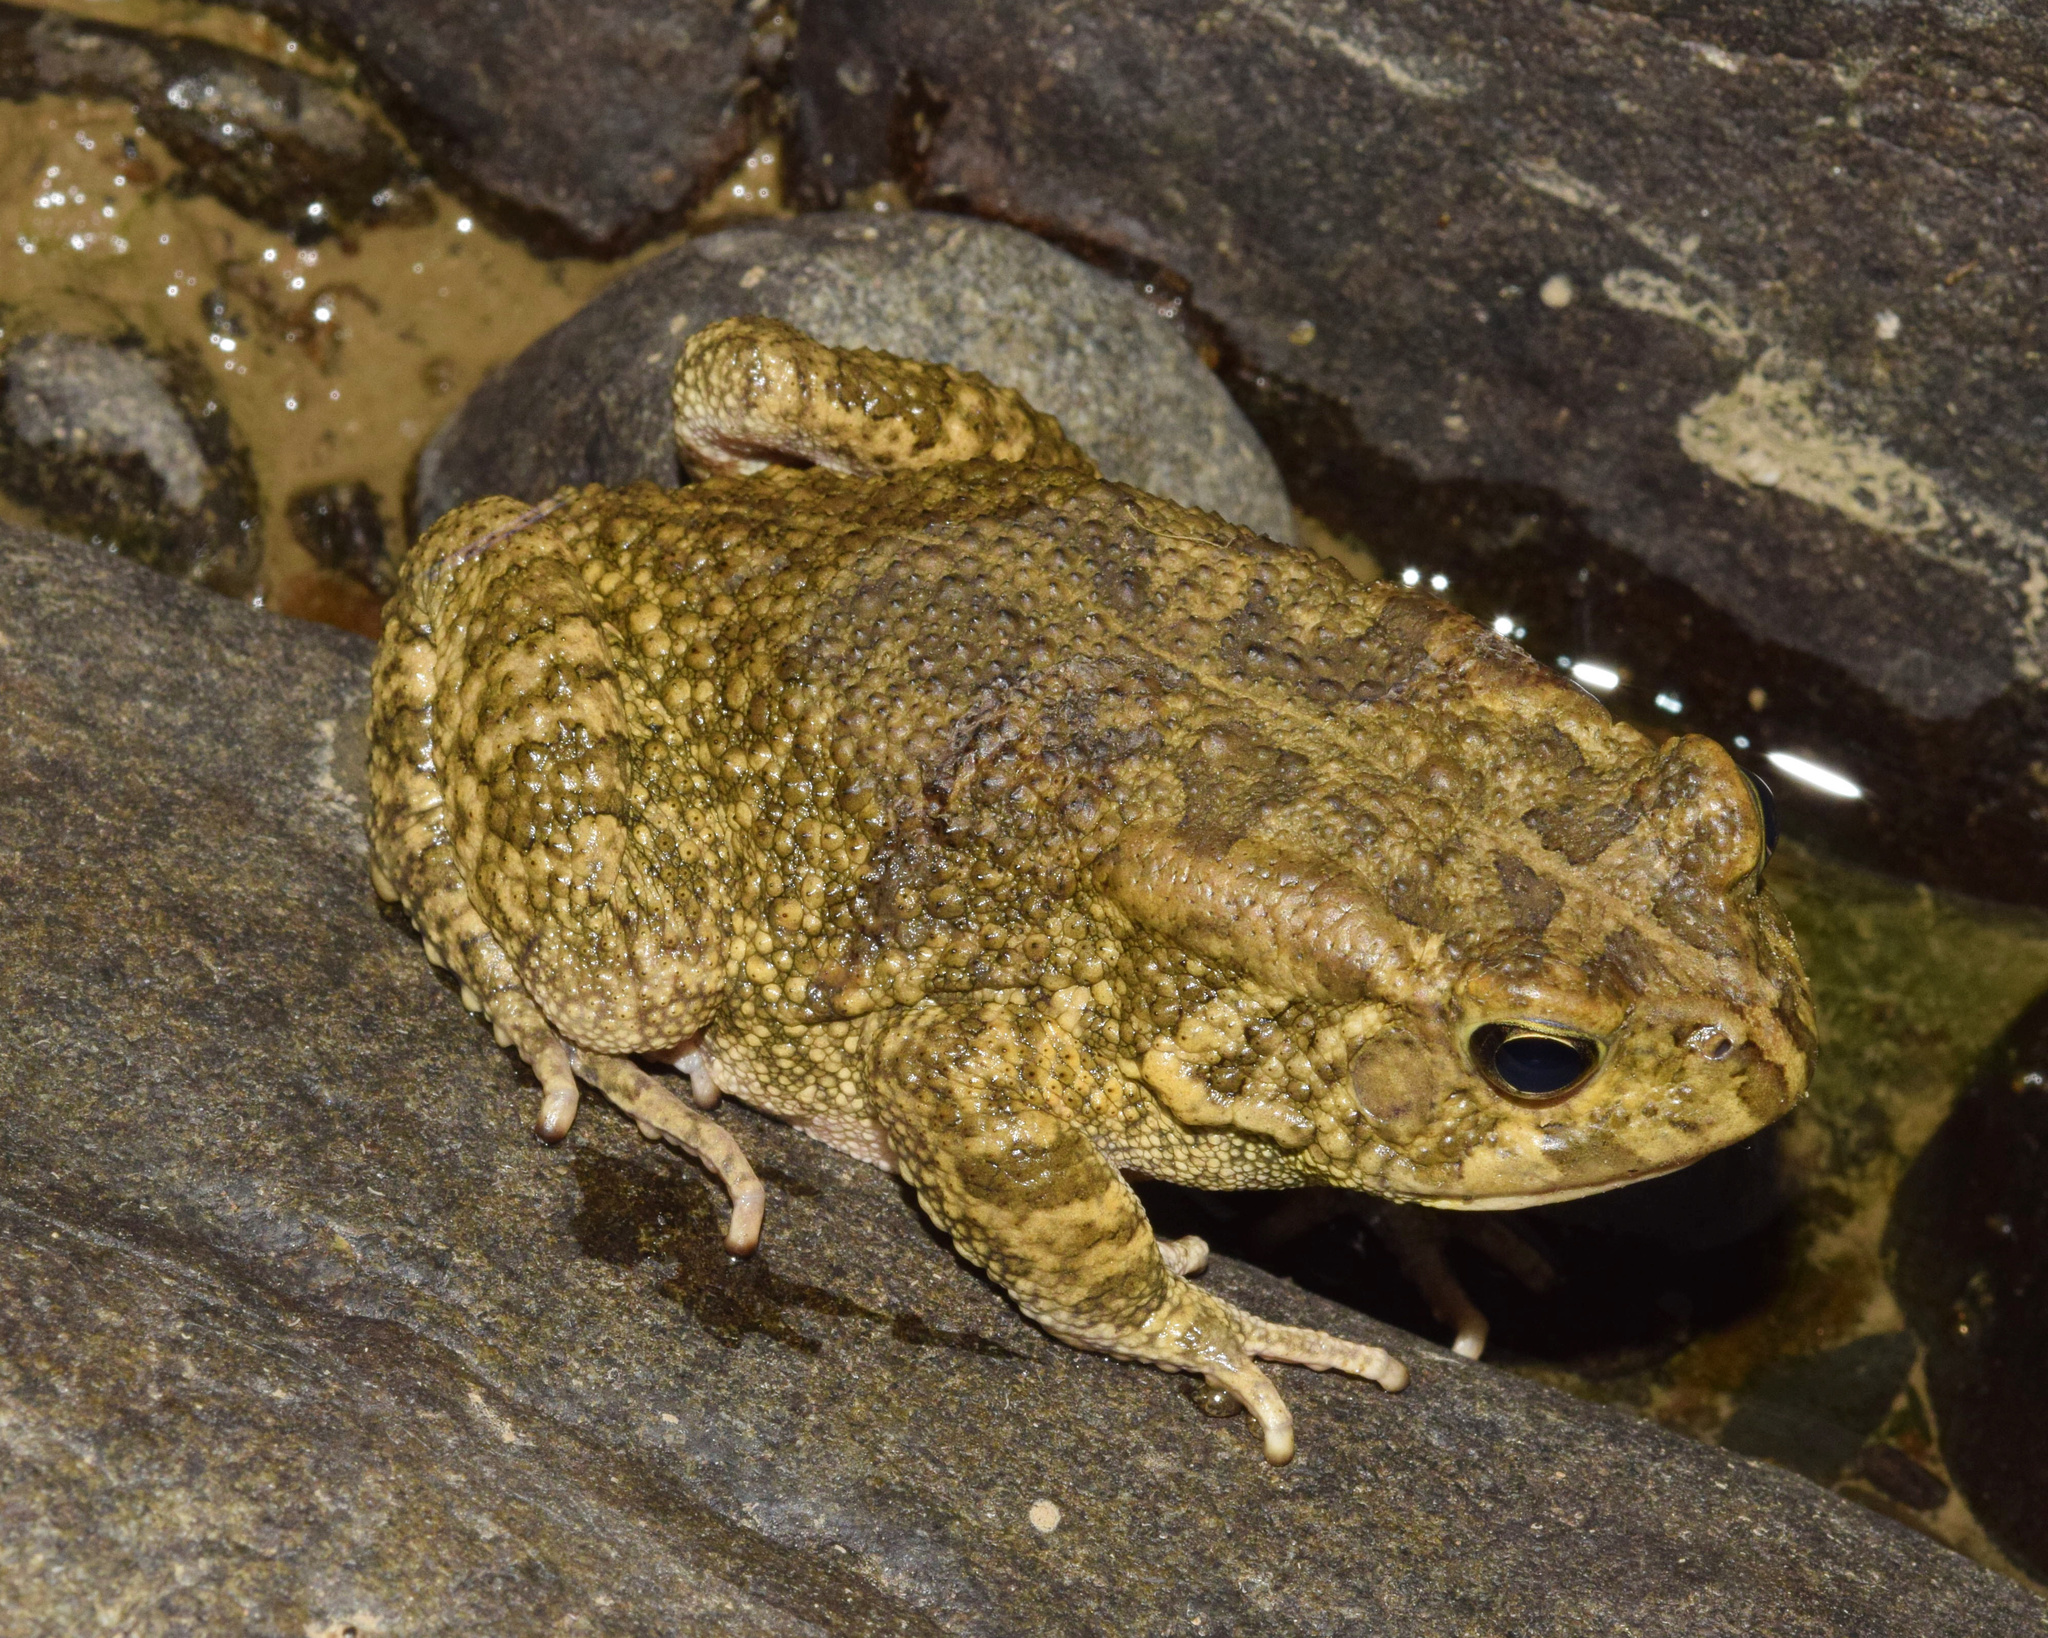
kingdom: Animalia
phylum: Chordata
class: Amphibia
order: Anura
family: Bufonidae
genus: Sclerophrys
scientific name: Sclerophrys gutturalis
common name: African common toad
